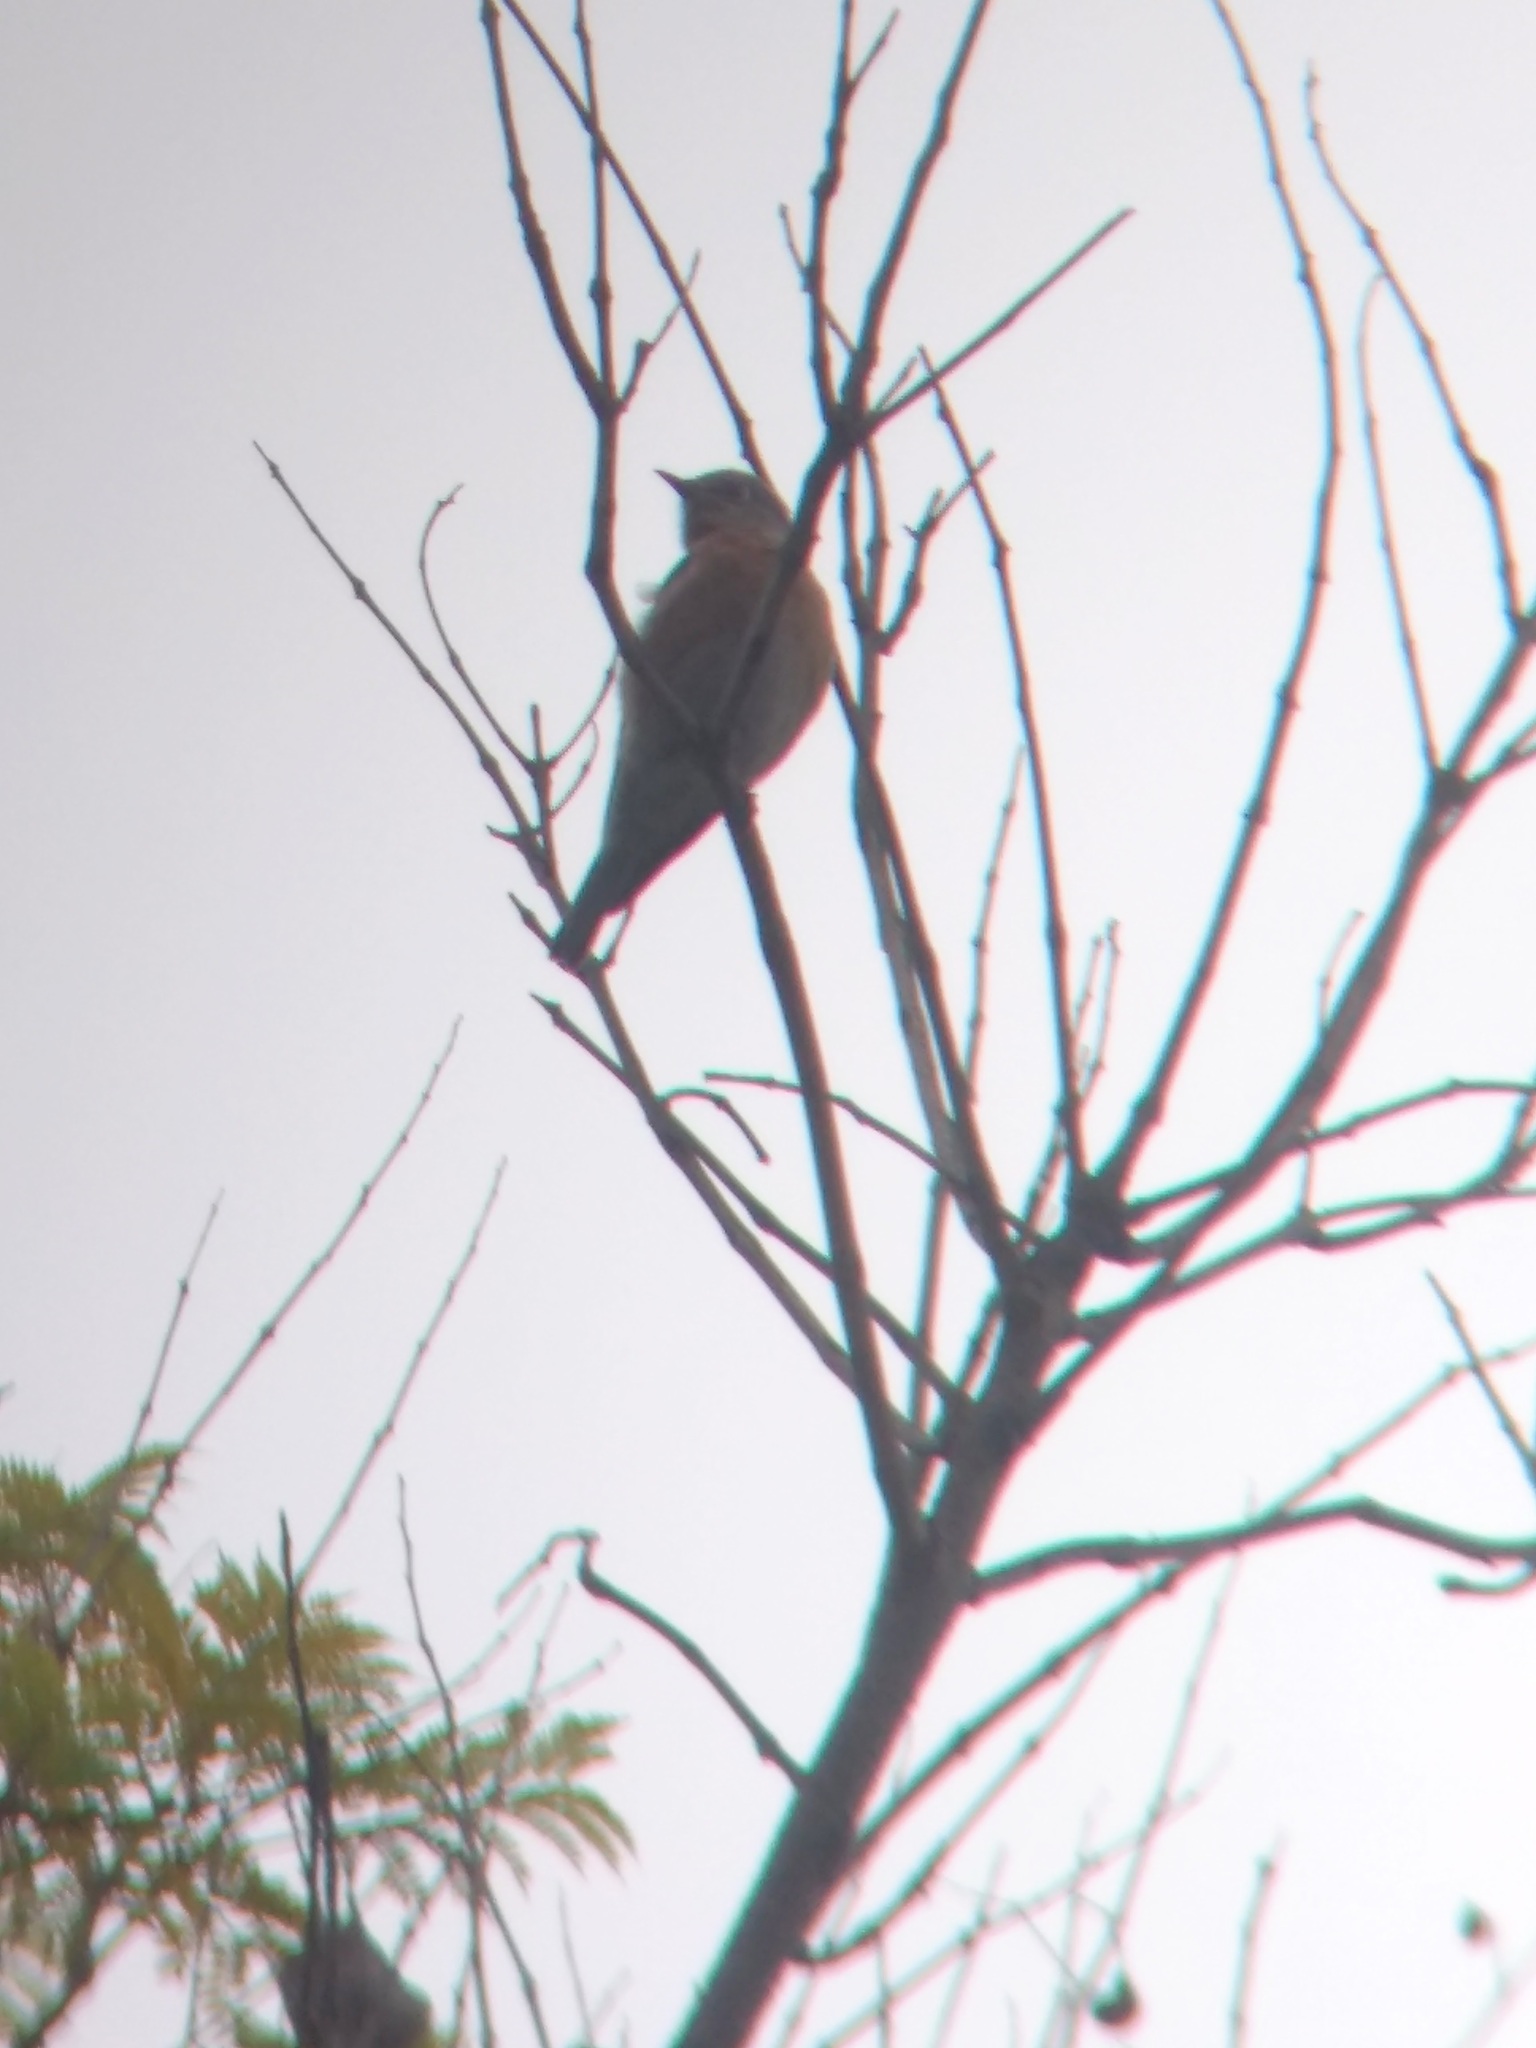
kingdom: Animalia
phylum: Chordata
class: Aves
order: Passeriformes
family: Turdidae
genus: Sialia
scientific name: Sialia mexicana
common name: Western bluebird
